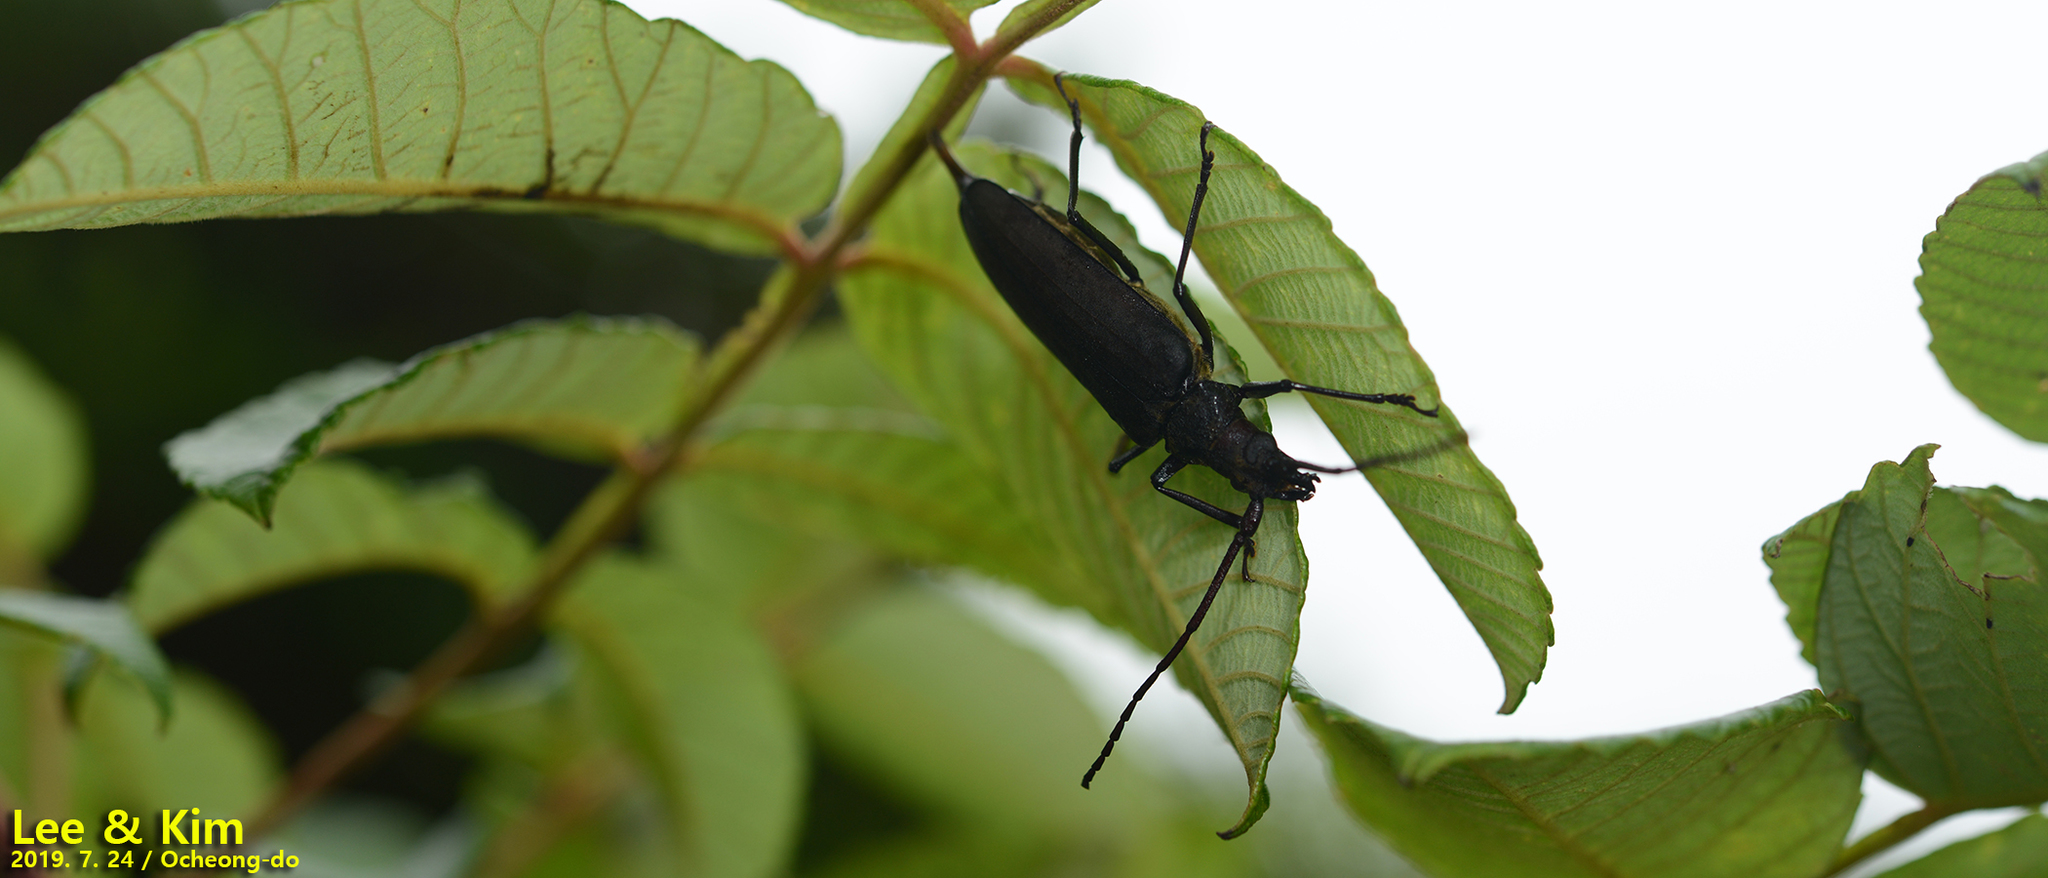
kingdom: Animalia
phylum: Arthropoda
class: Insecta
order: Coleoptera
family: Cerambycidae
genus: Aegosoma
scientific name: Aegosoma sinicum
